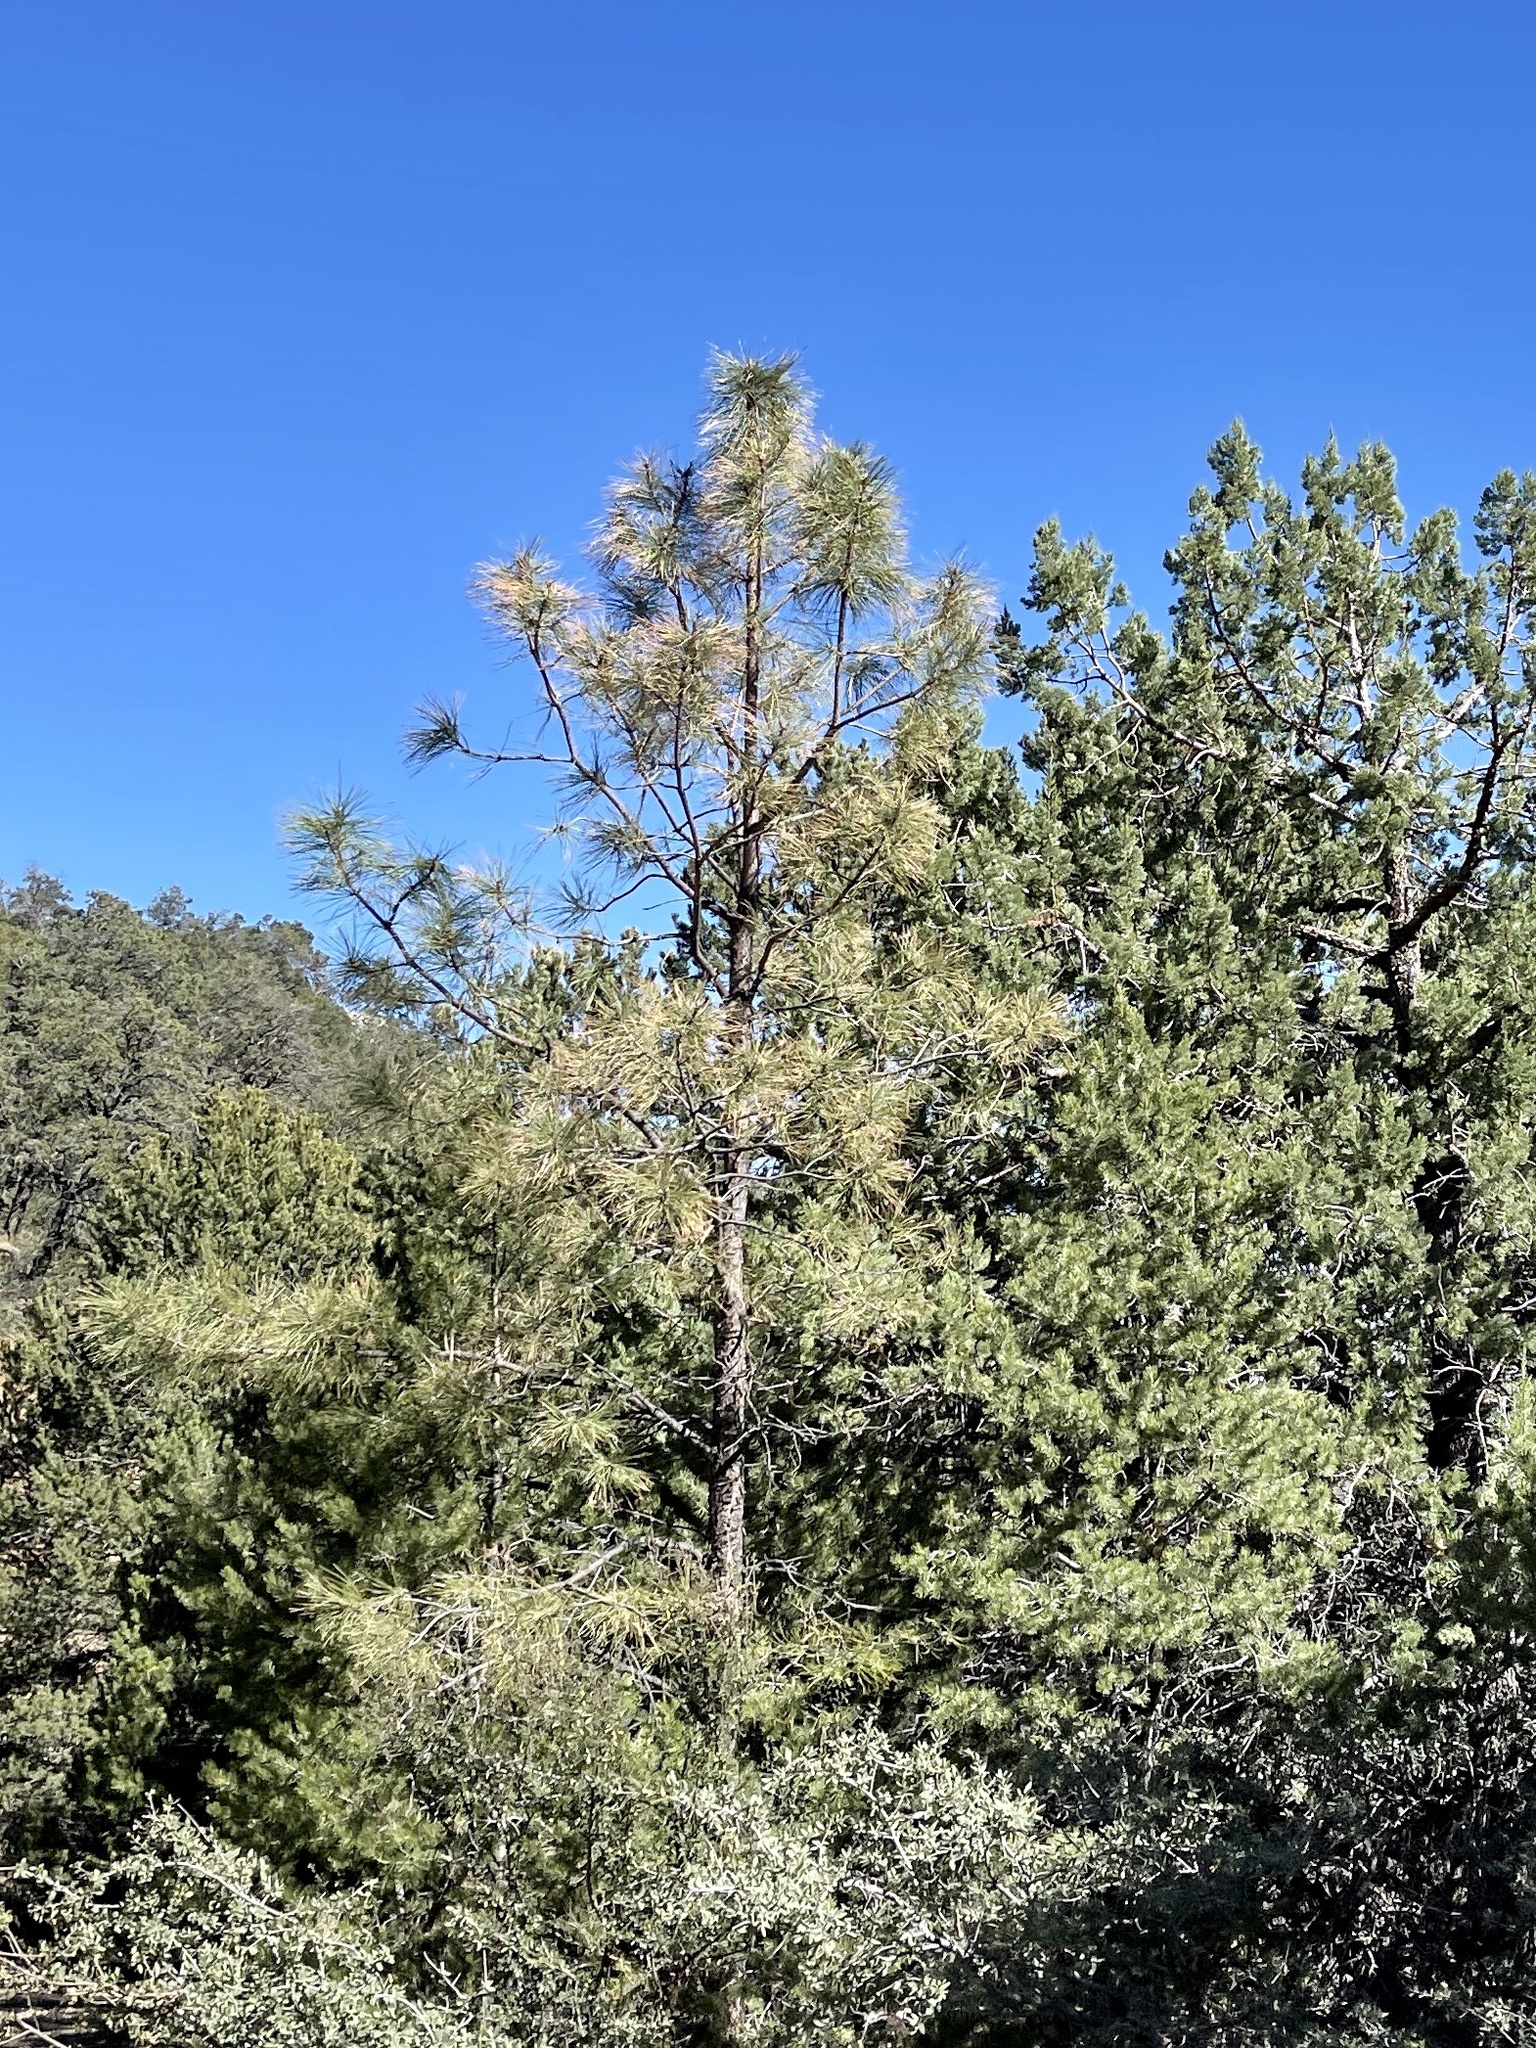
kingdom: Plantae
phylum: Tracheophyta
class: Pinopsida
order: Pinales
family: Pinaceae
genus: Pinus
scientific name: Pinus ponderosa
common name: Western yellow-pine
